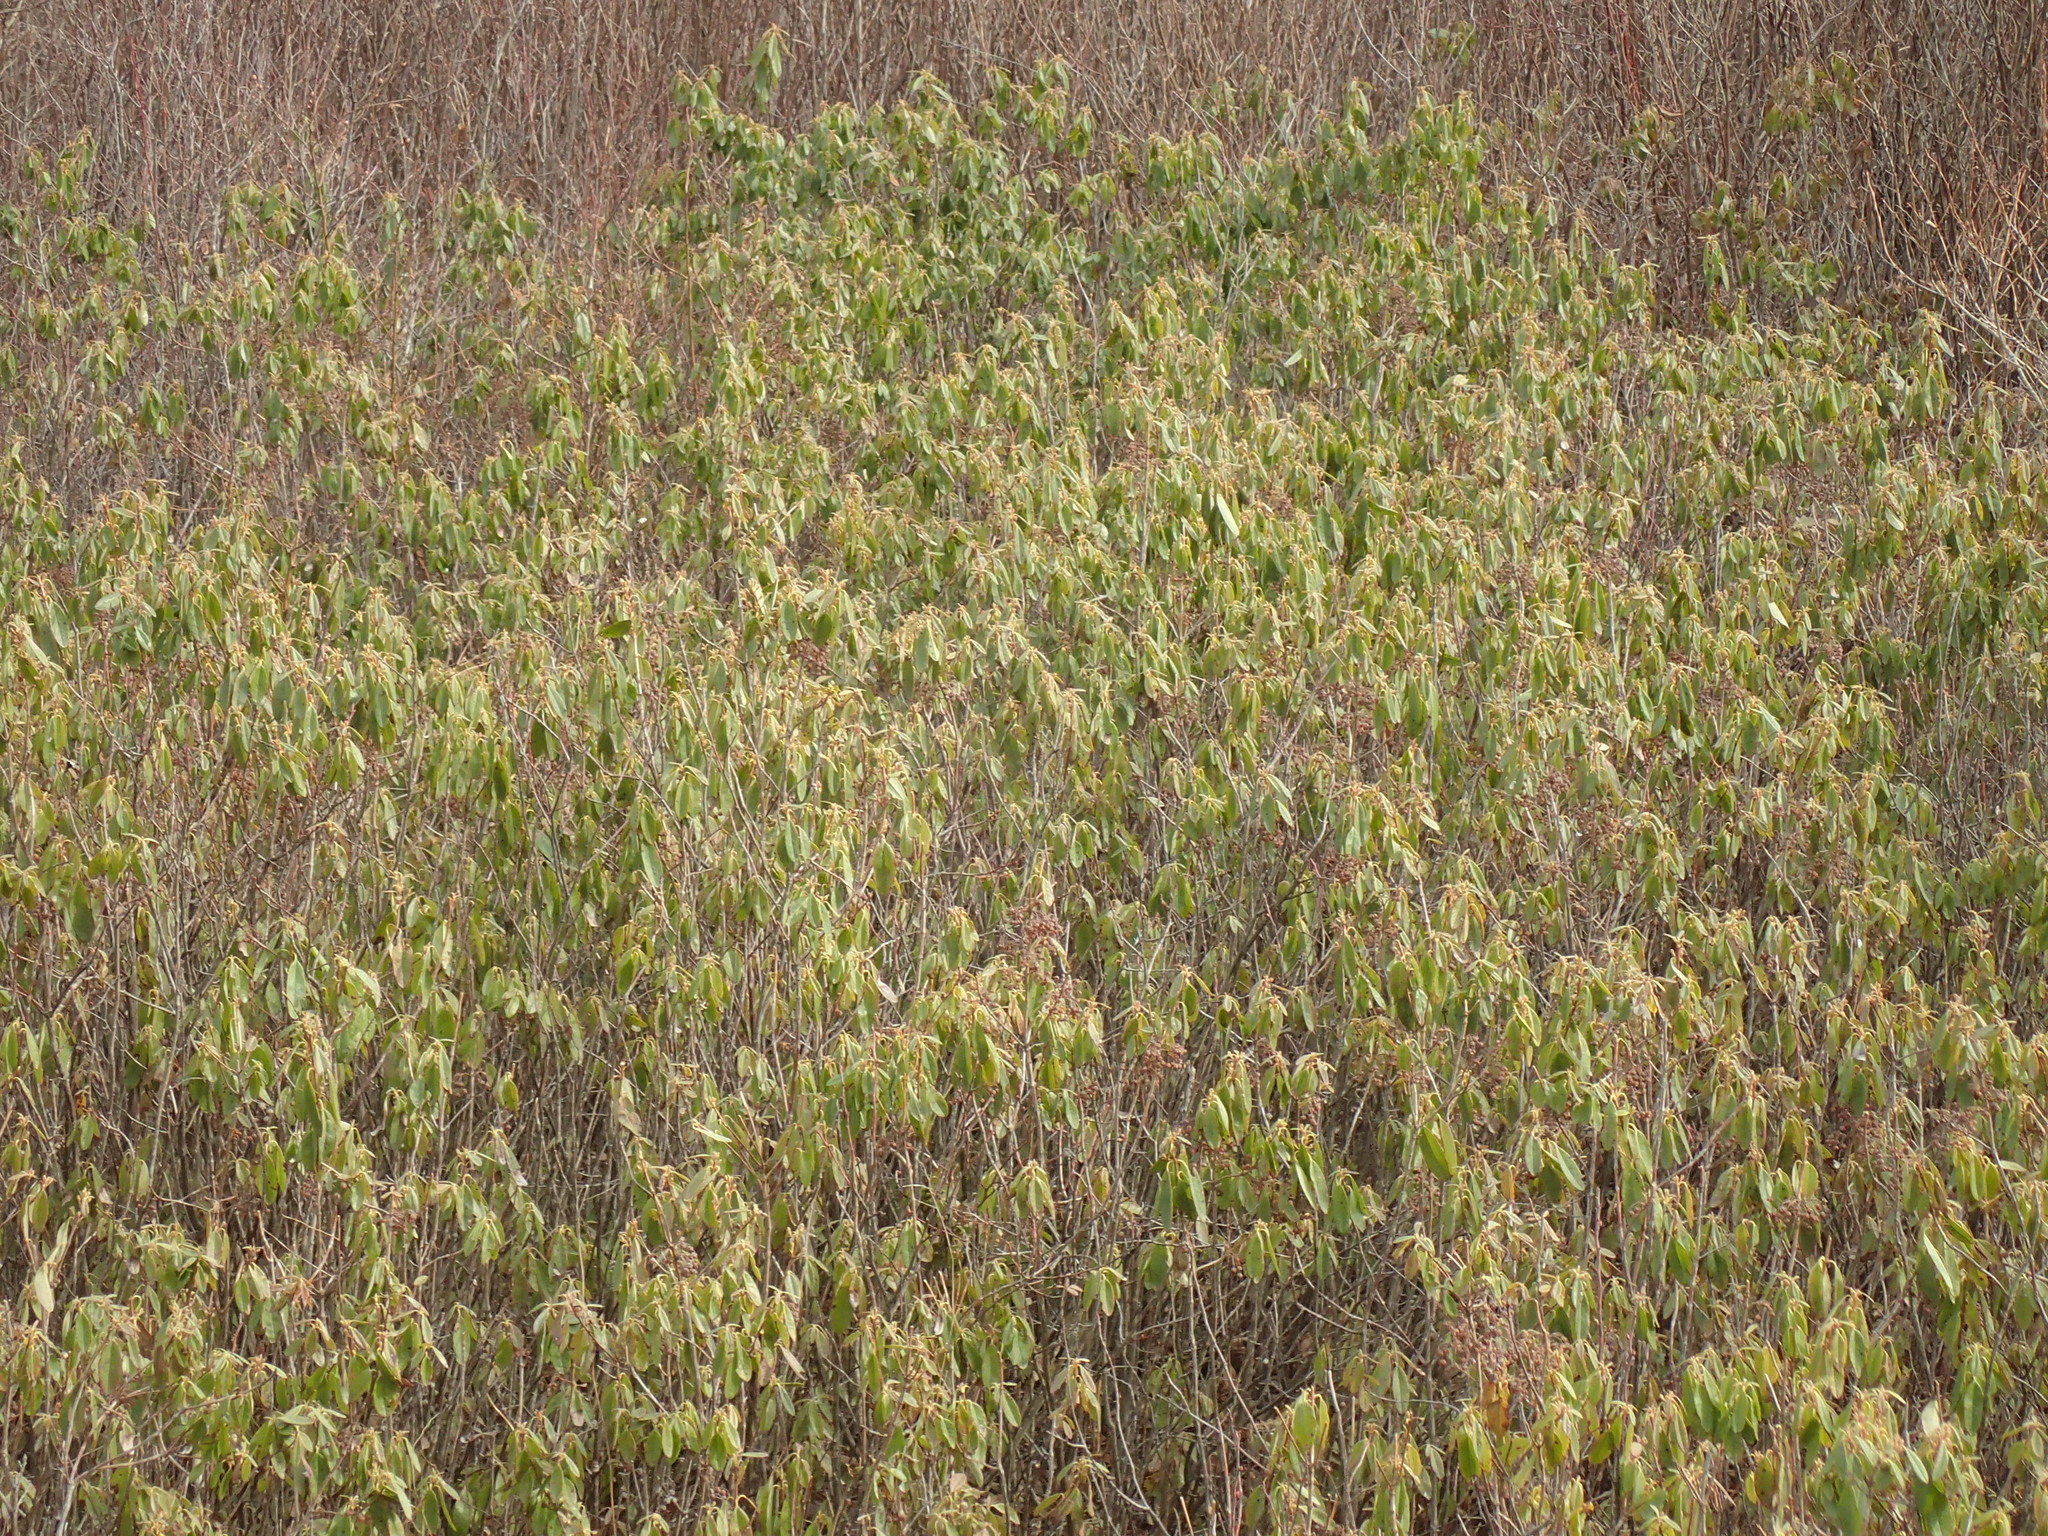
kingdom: Plantae
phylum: Tracheophyta
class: Magnoliopsida
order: Ericales
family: Ericaceae
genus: Kalmia
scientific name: Kalmia angustifolia
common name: Sheep-laurel
